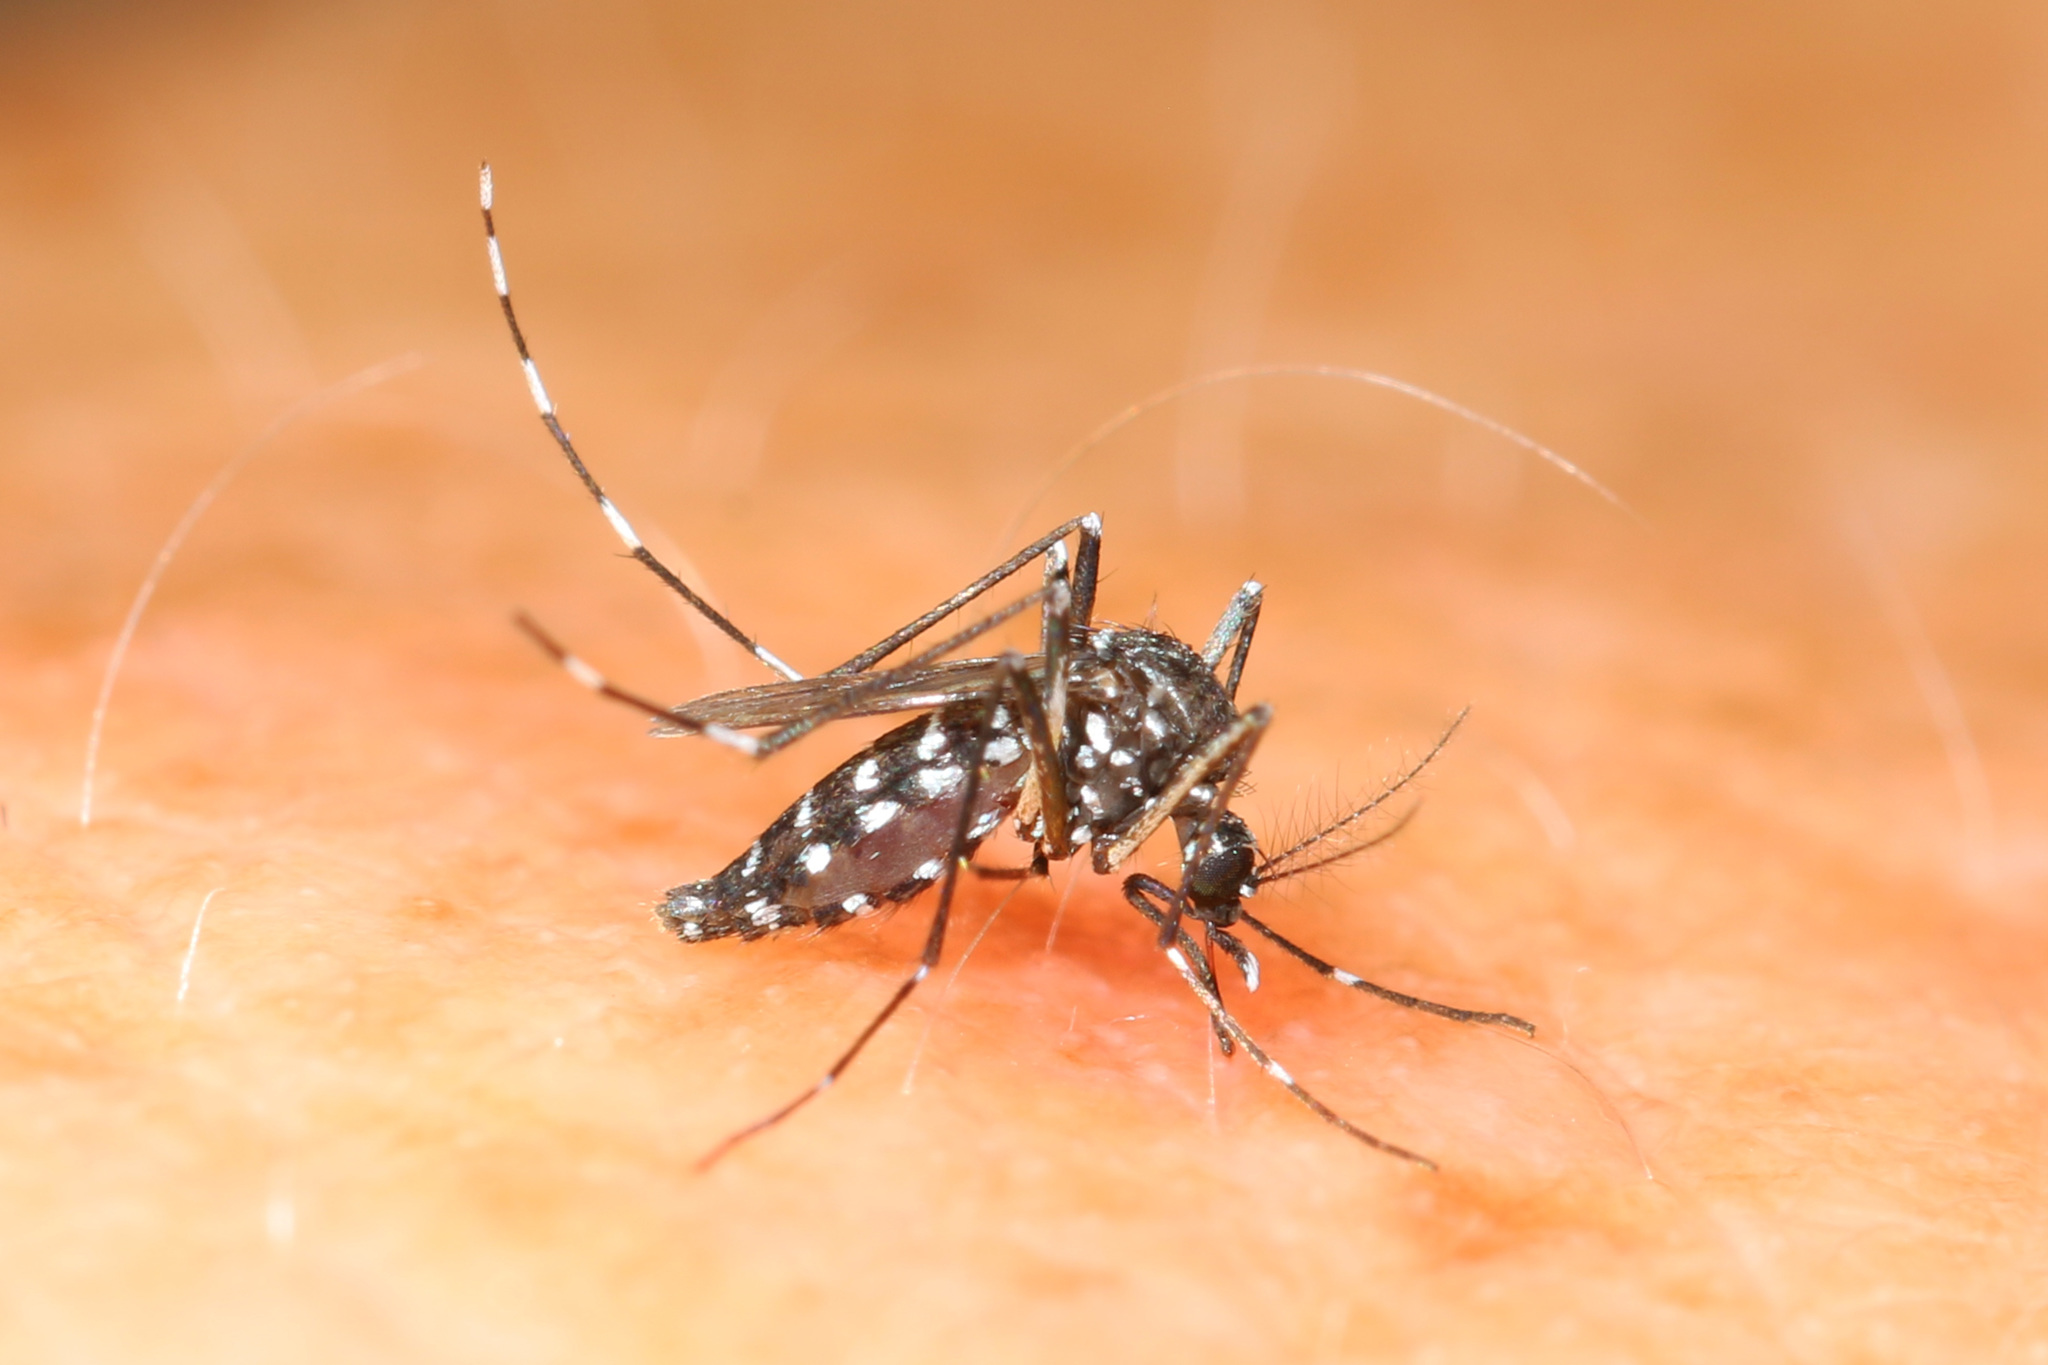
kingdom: Animalia
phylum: Arthropoda
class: Insecta
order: Diptera
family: Culicidae
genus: Aedes
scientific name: Aedes albopictus
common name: Tiger mosquito
